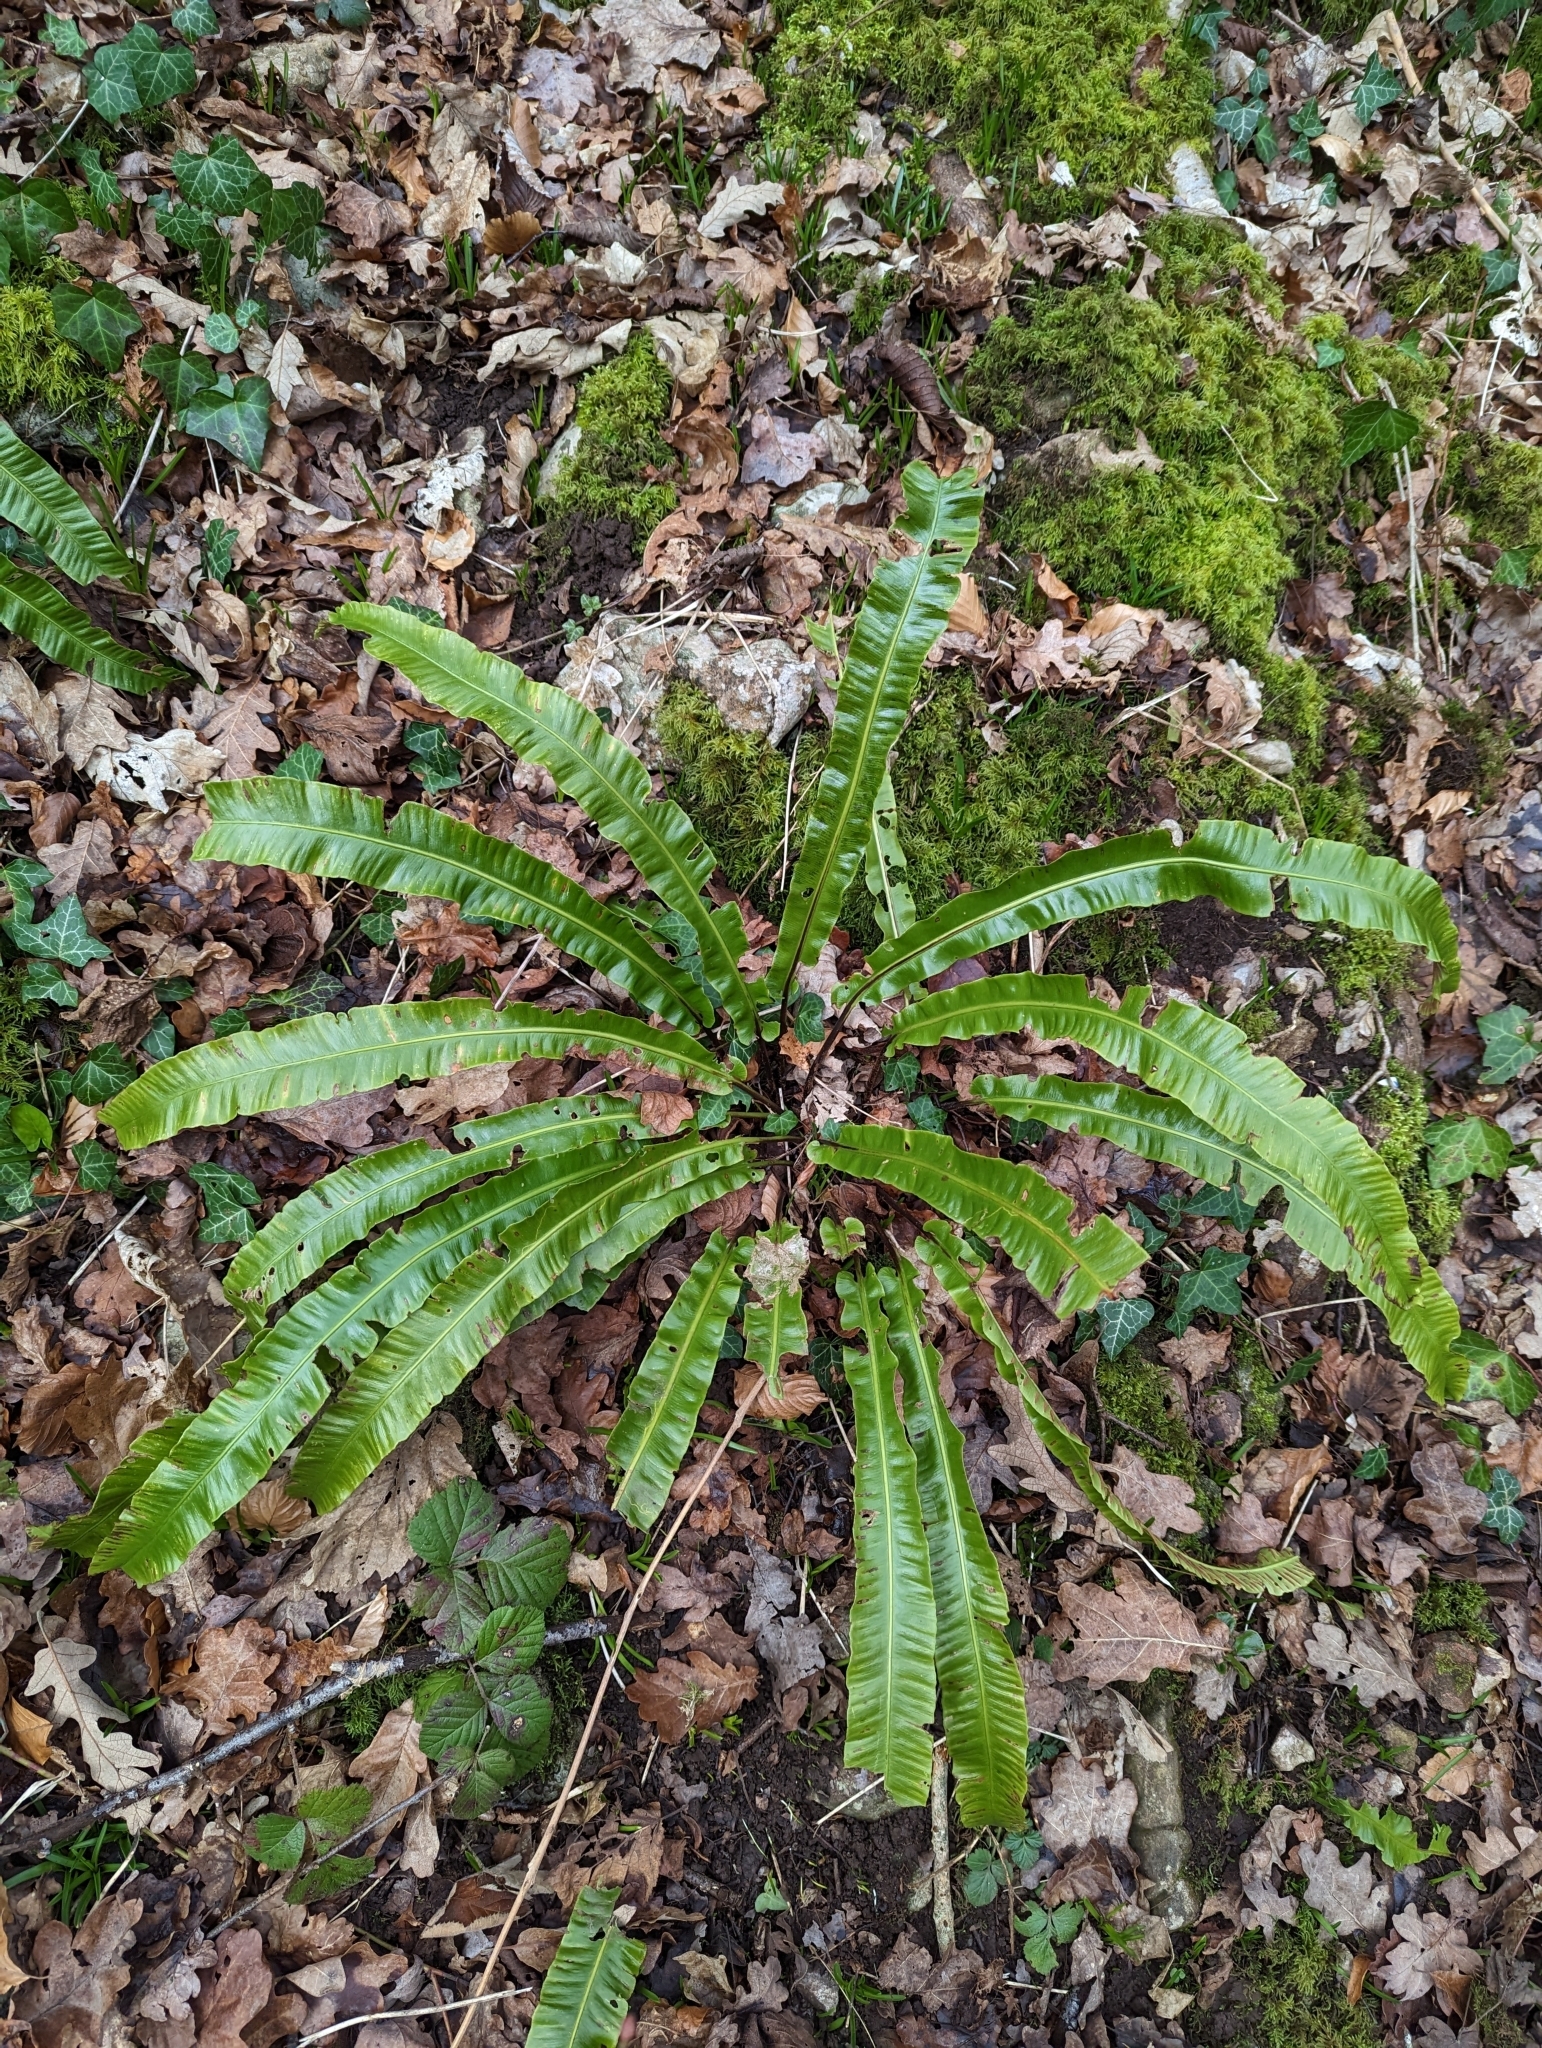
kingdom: Plantae
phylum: Tracheophyta
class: Polypodiopsida
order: Polypodiales
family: Aspleniaceae
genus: Asplenium
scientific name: Asplenium scolopendrium
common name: Hart's-tongue fern
